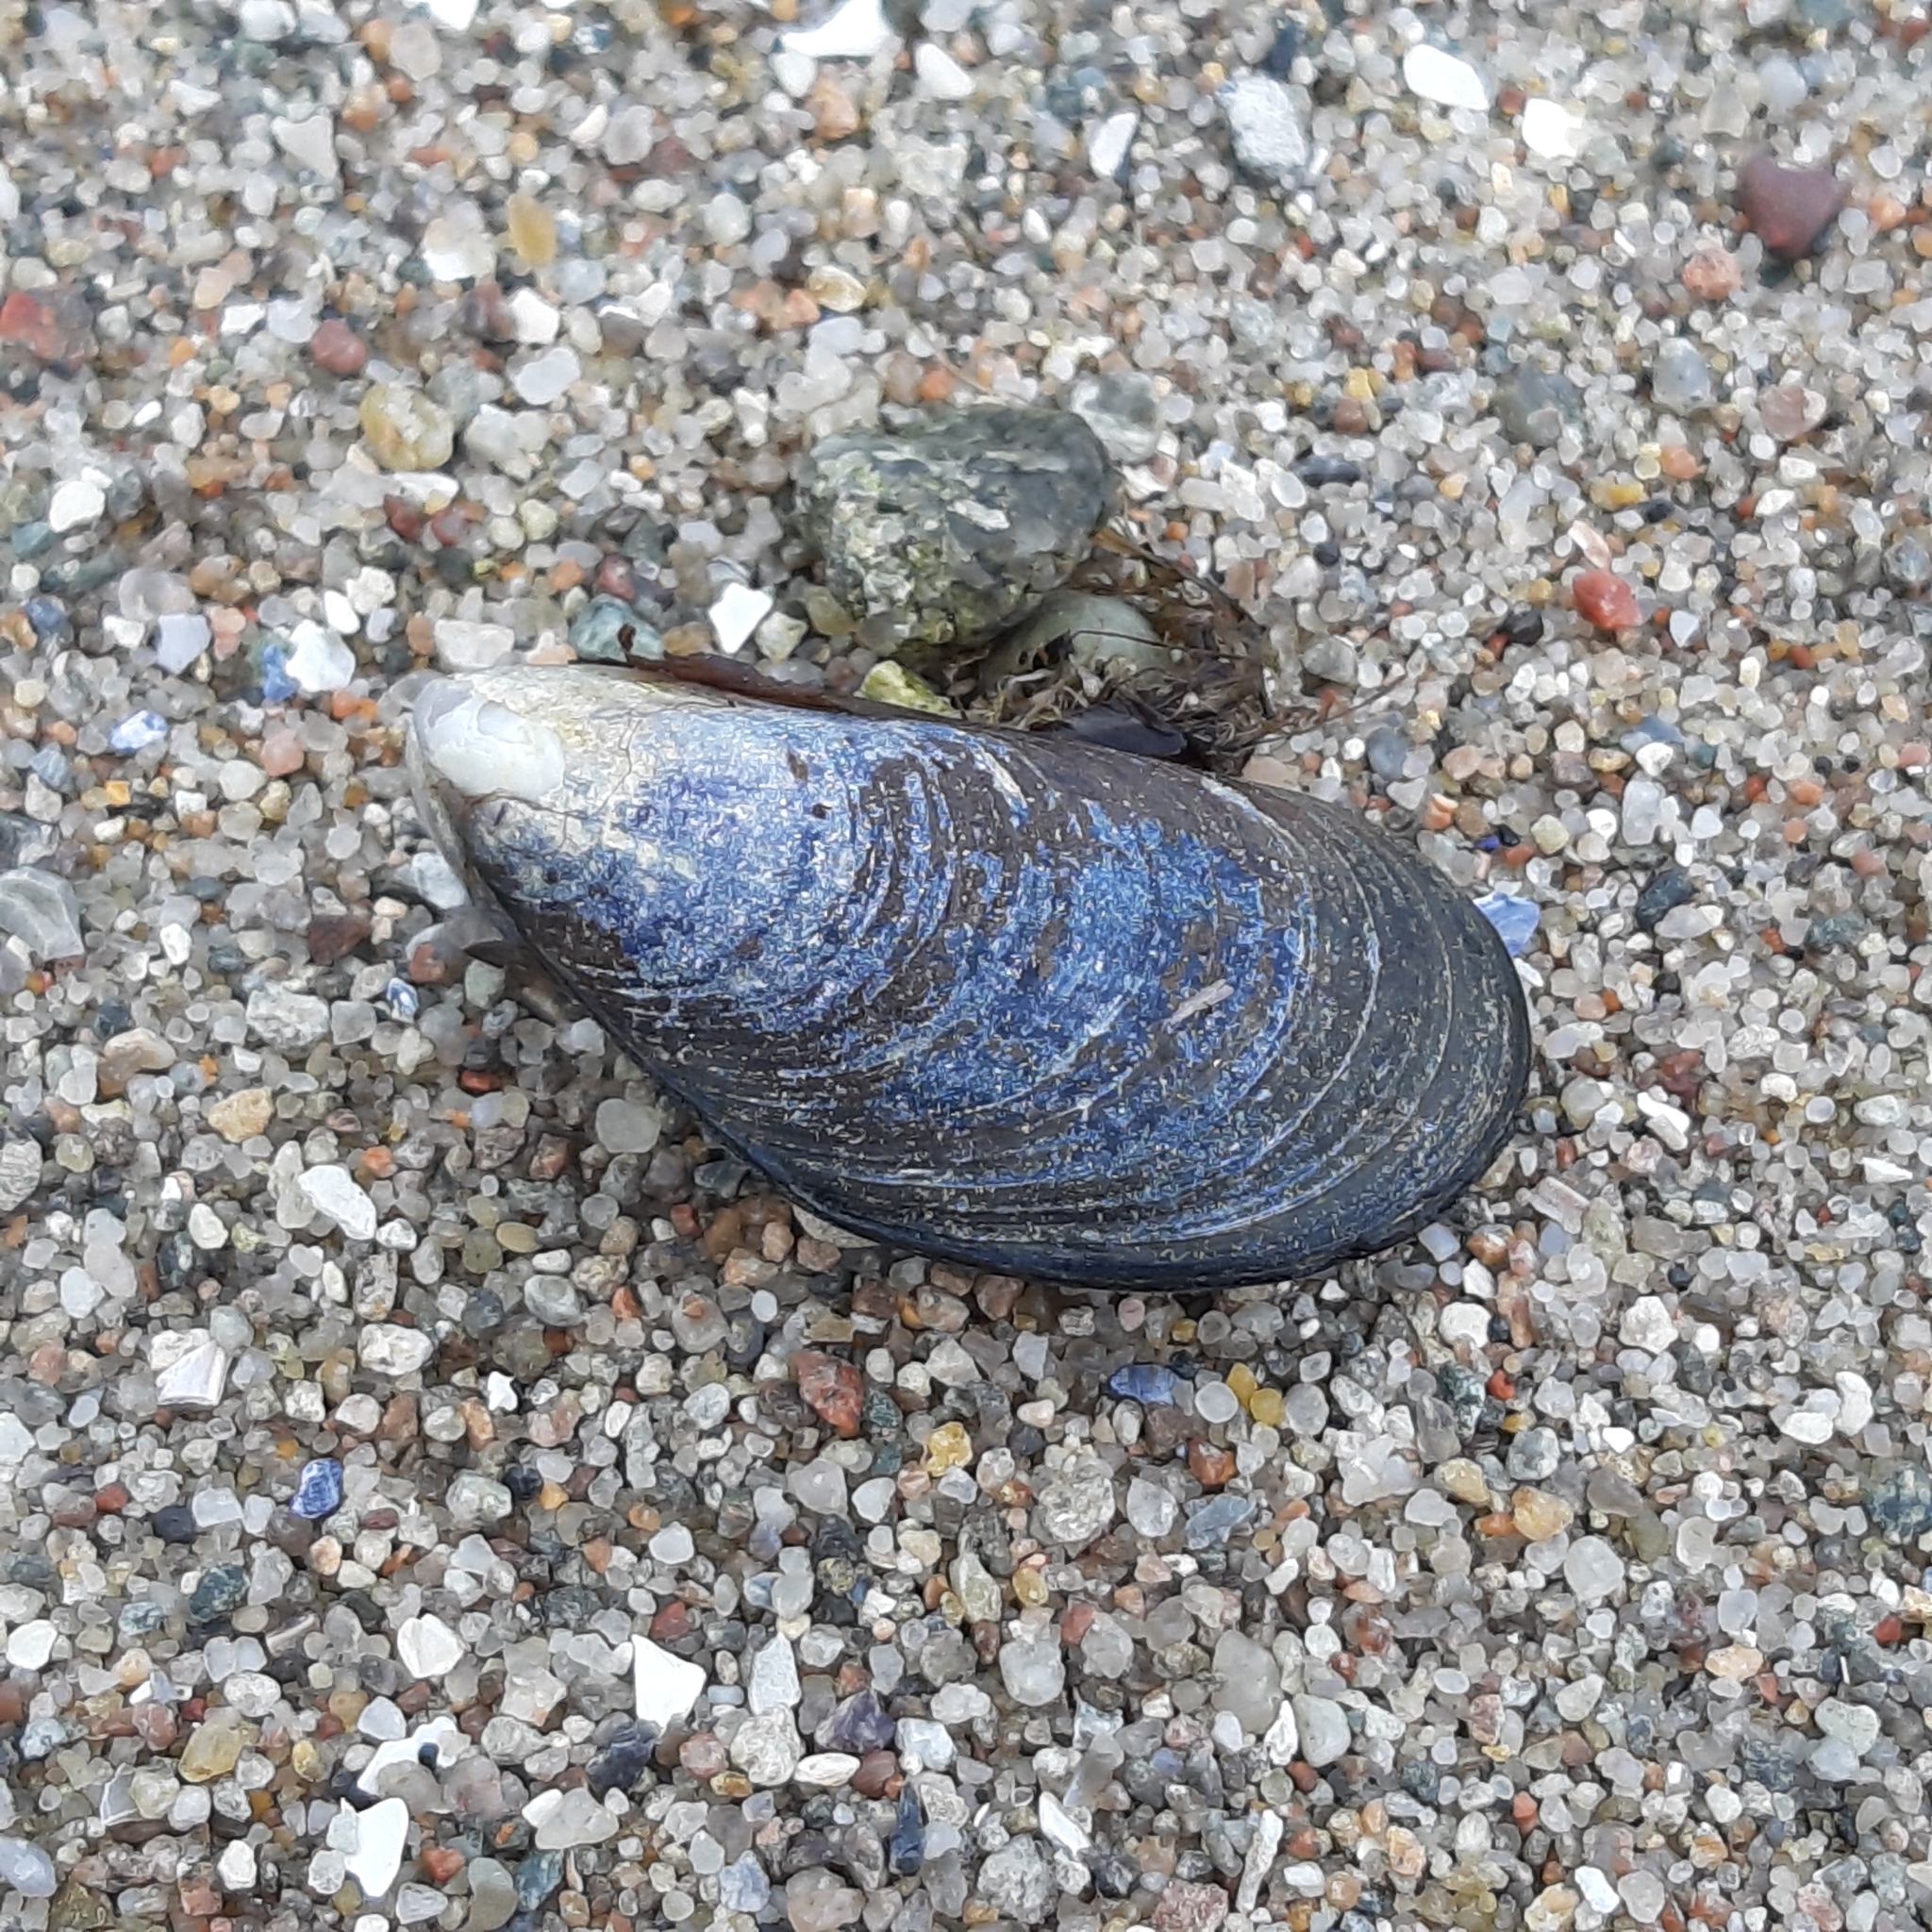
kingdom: Animalia
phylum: Mollusca
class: Bivalvia
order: Mytilida
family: Mytilidae
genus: Mytilus
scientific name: Mytilus edulis
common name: Blue mussel
